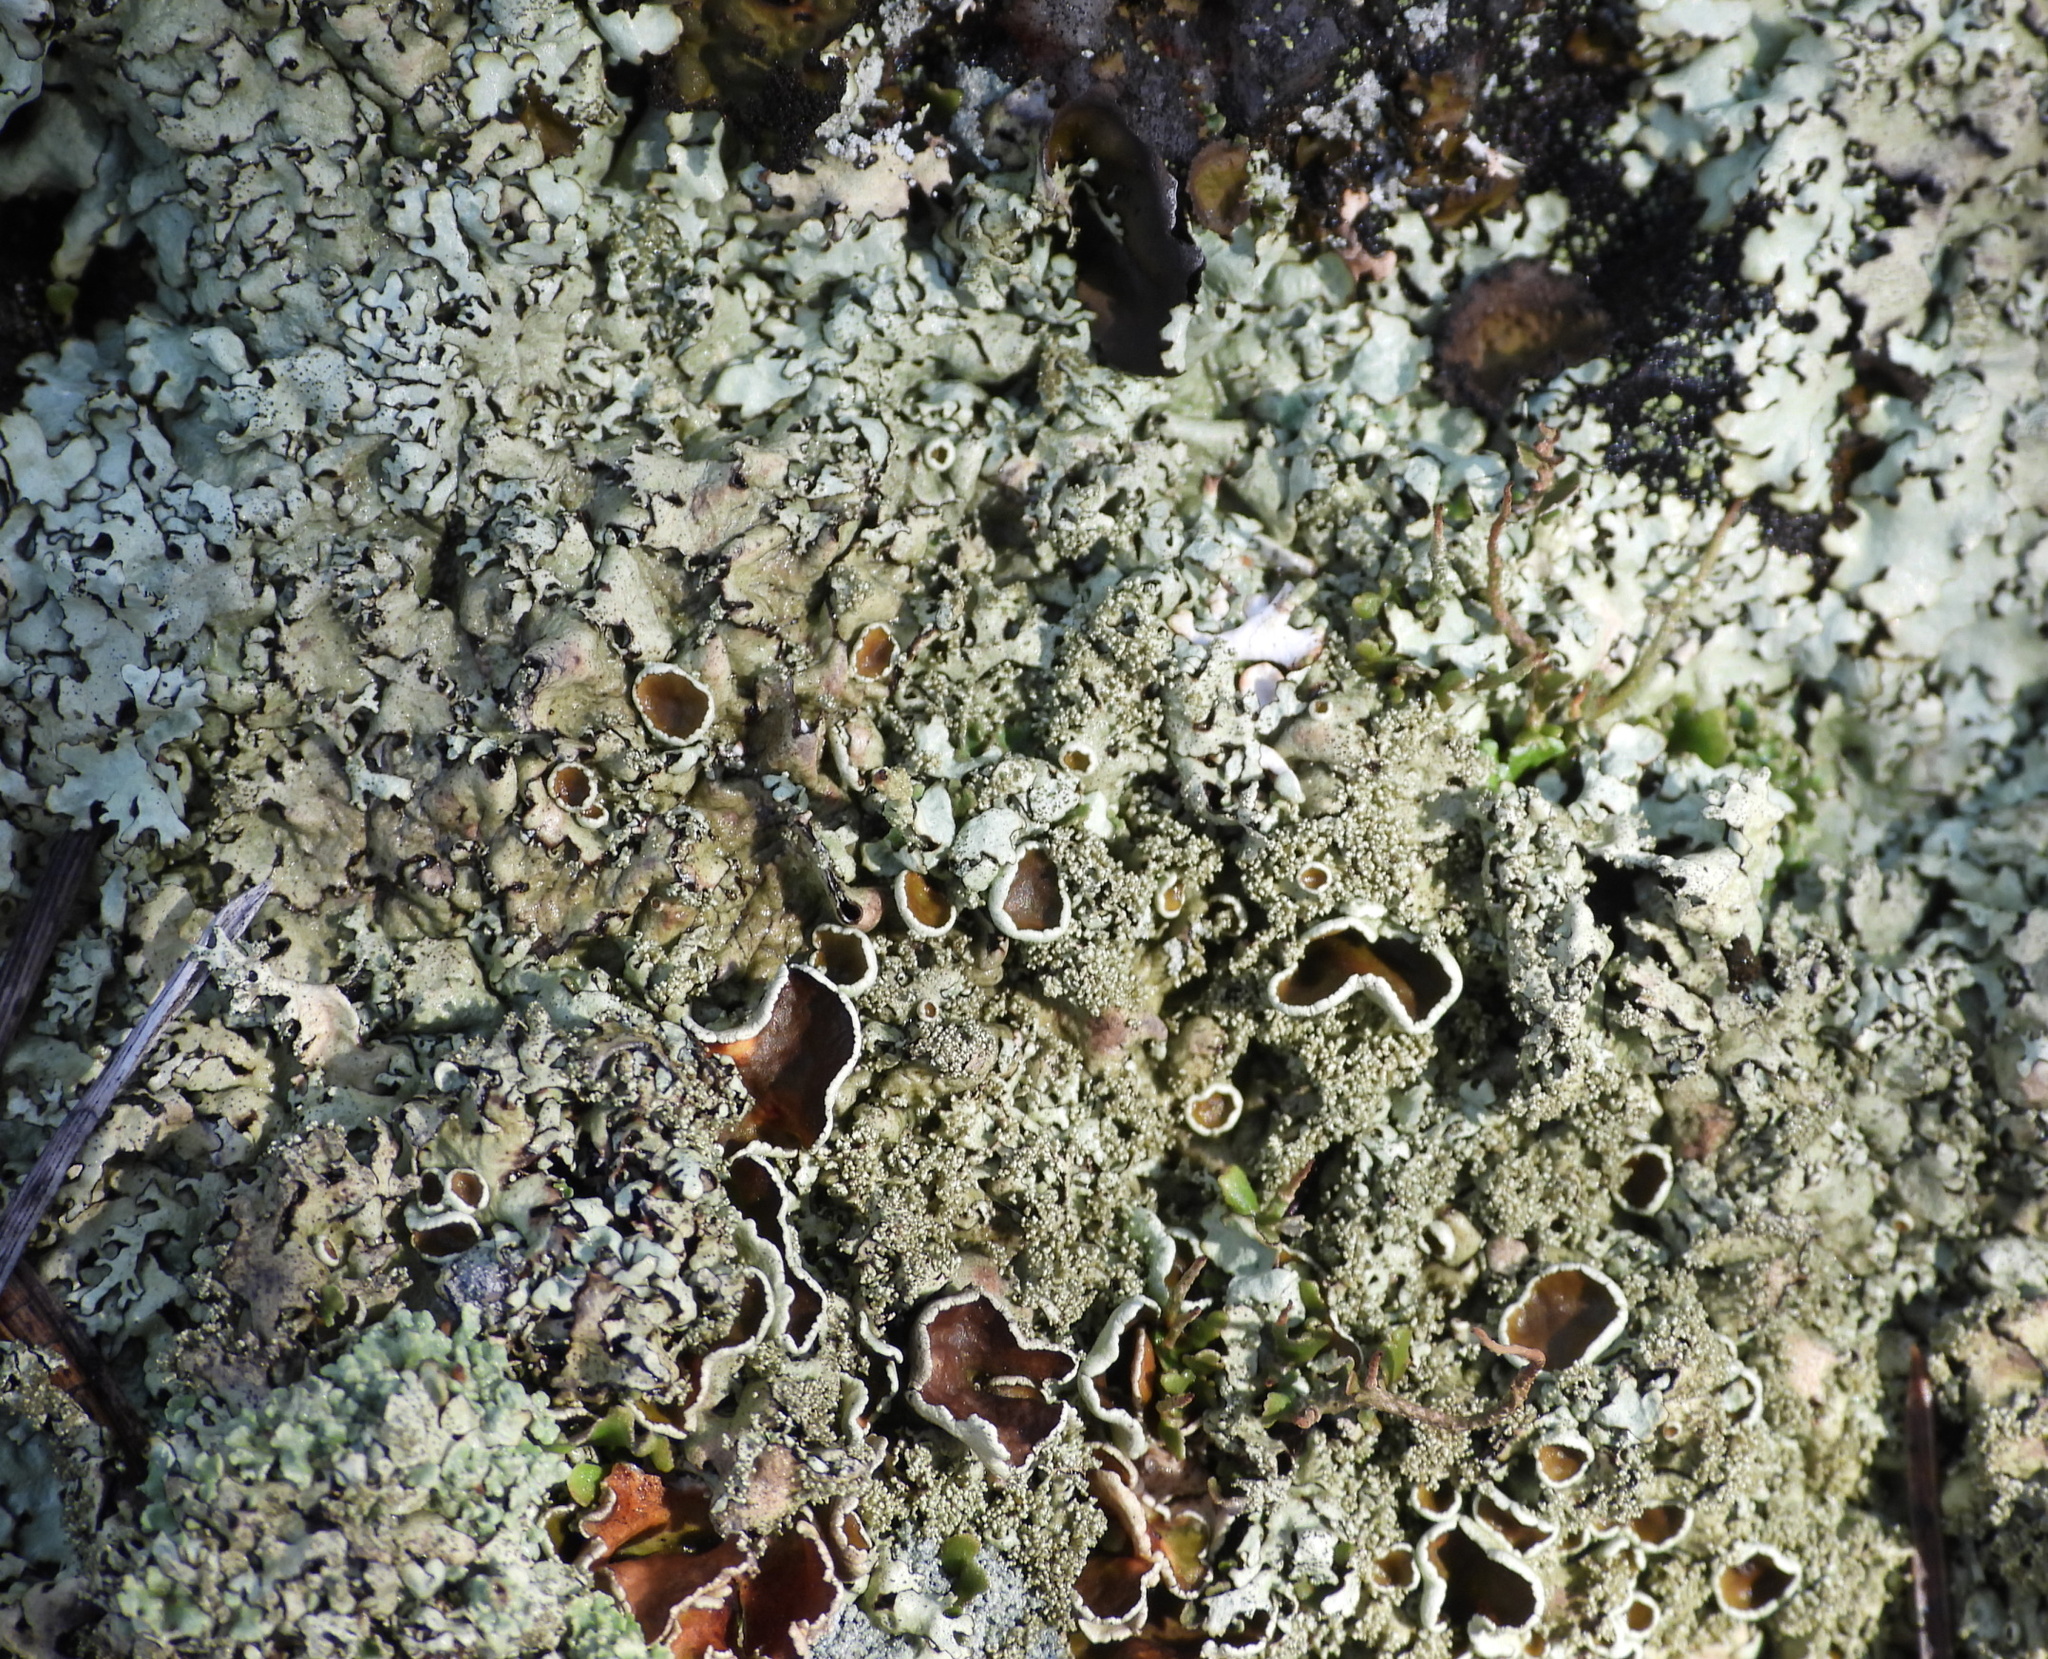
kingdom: Fungi
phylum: Ascomycota
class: Lecanoromycetes
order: Lecanorales
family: Parmeliaceae
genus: Xanthoparmelia
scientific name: Xanthoparmelia conspersa
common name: Peppered rock shield
